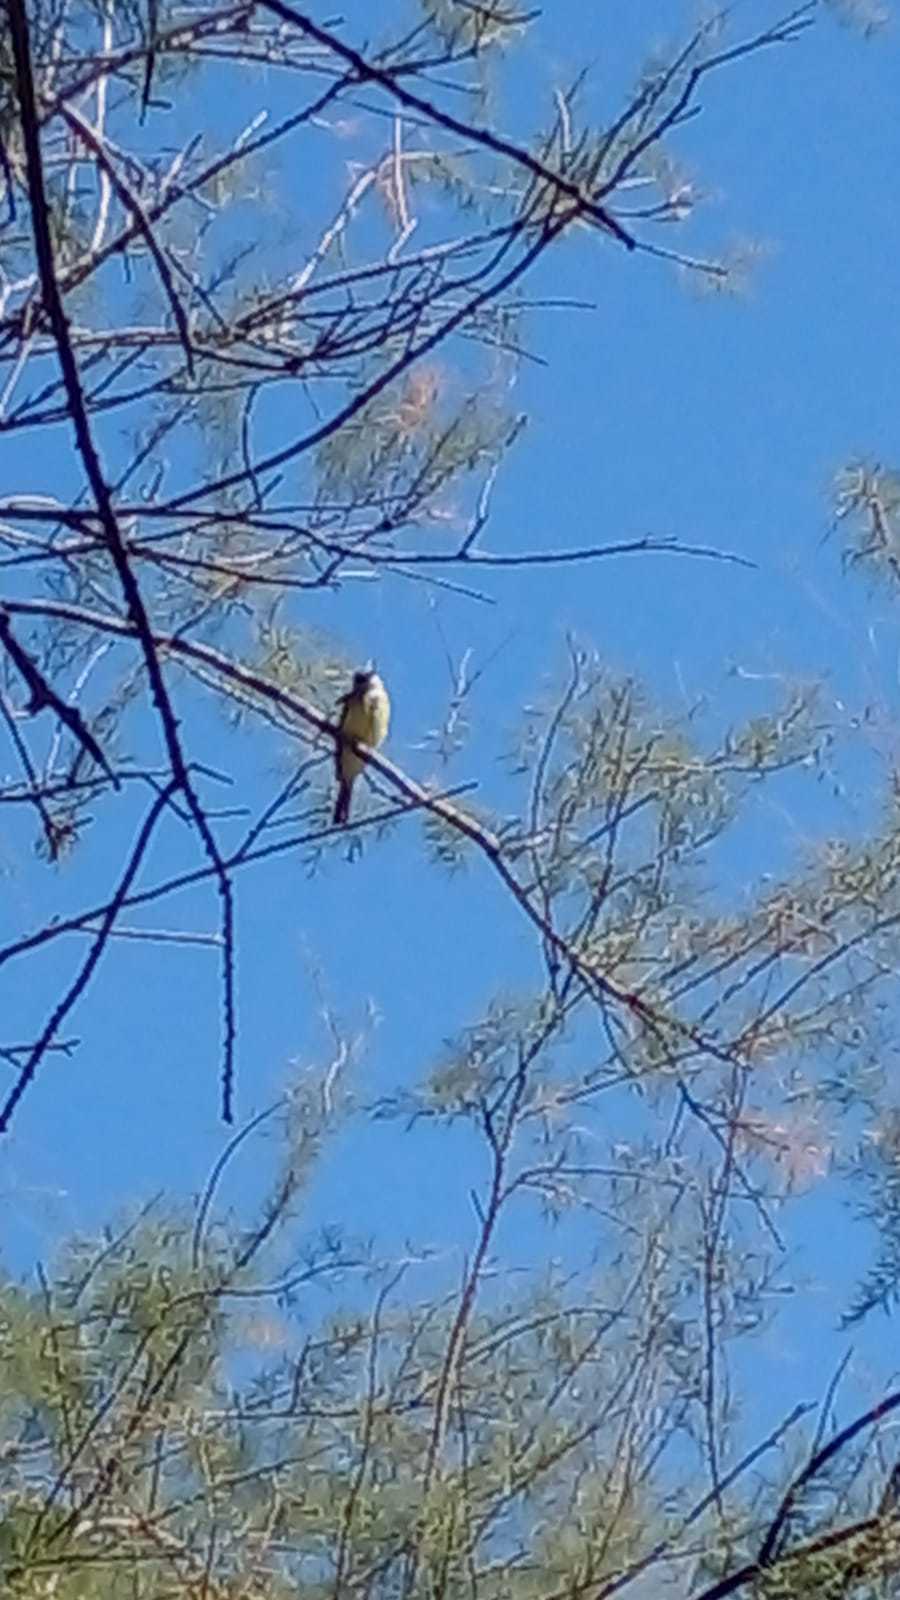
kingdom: Animalia
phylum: Chordata
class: Aves
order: Passeriformes
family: Tyrannidae
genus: Machetornis
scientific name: Machetornis rixosa
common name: Cattle tyrant
